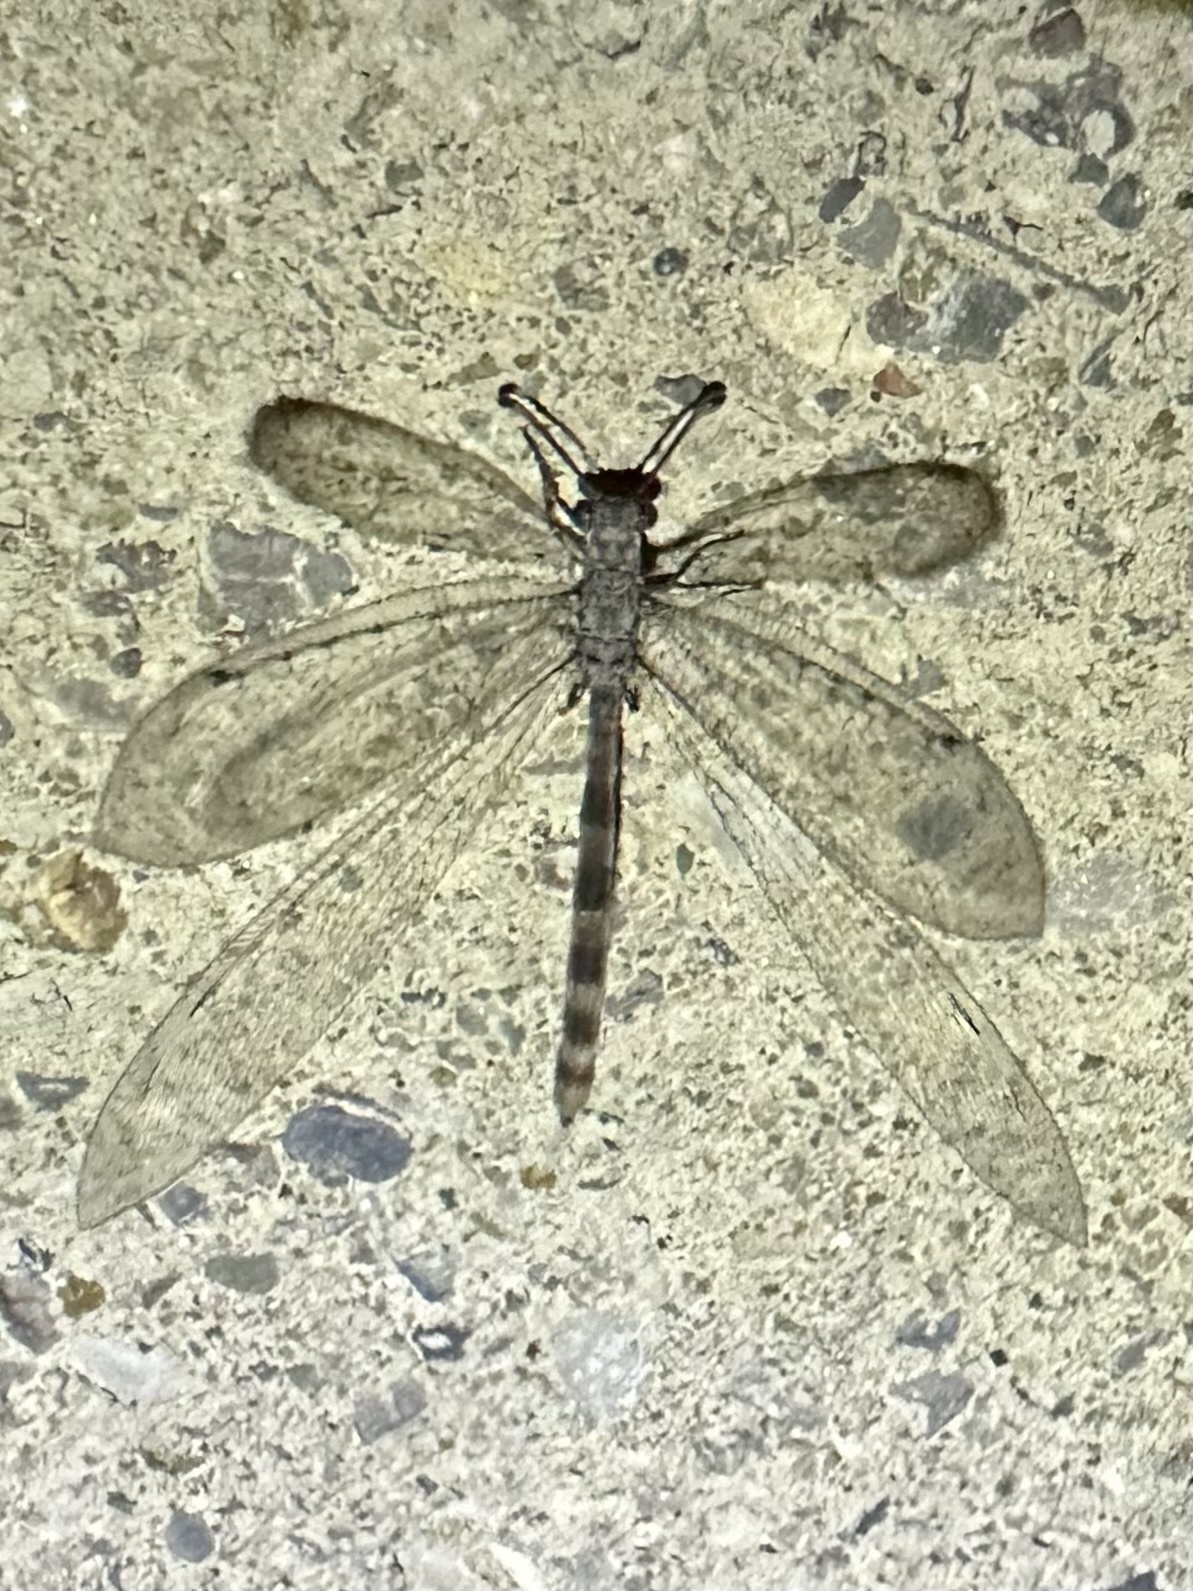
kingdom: Animalia
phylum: Arthropoda
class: Insecta
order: Neuroptera
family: Myrmeleontidae
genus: Myrmeleon
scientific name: Myrmeleon immaculatus
